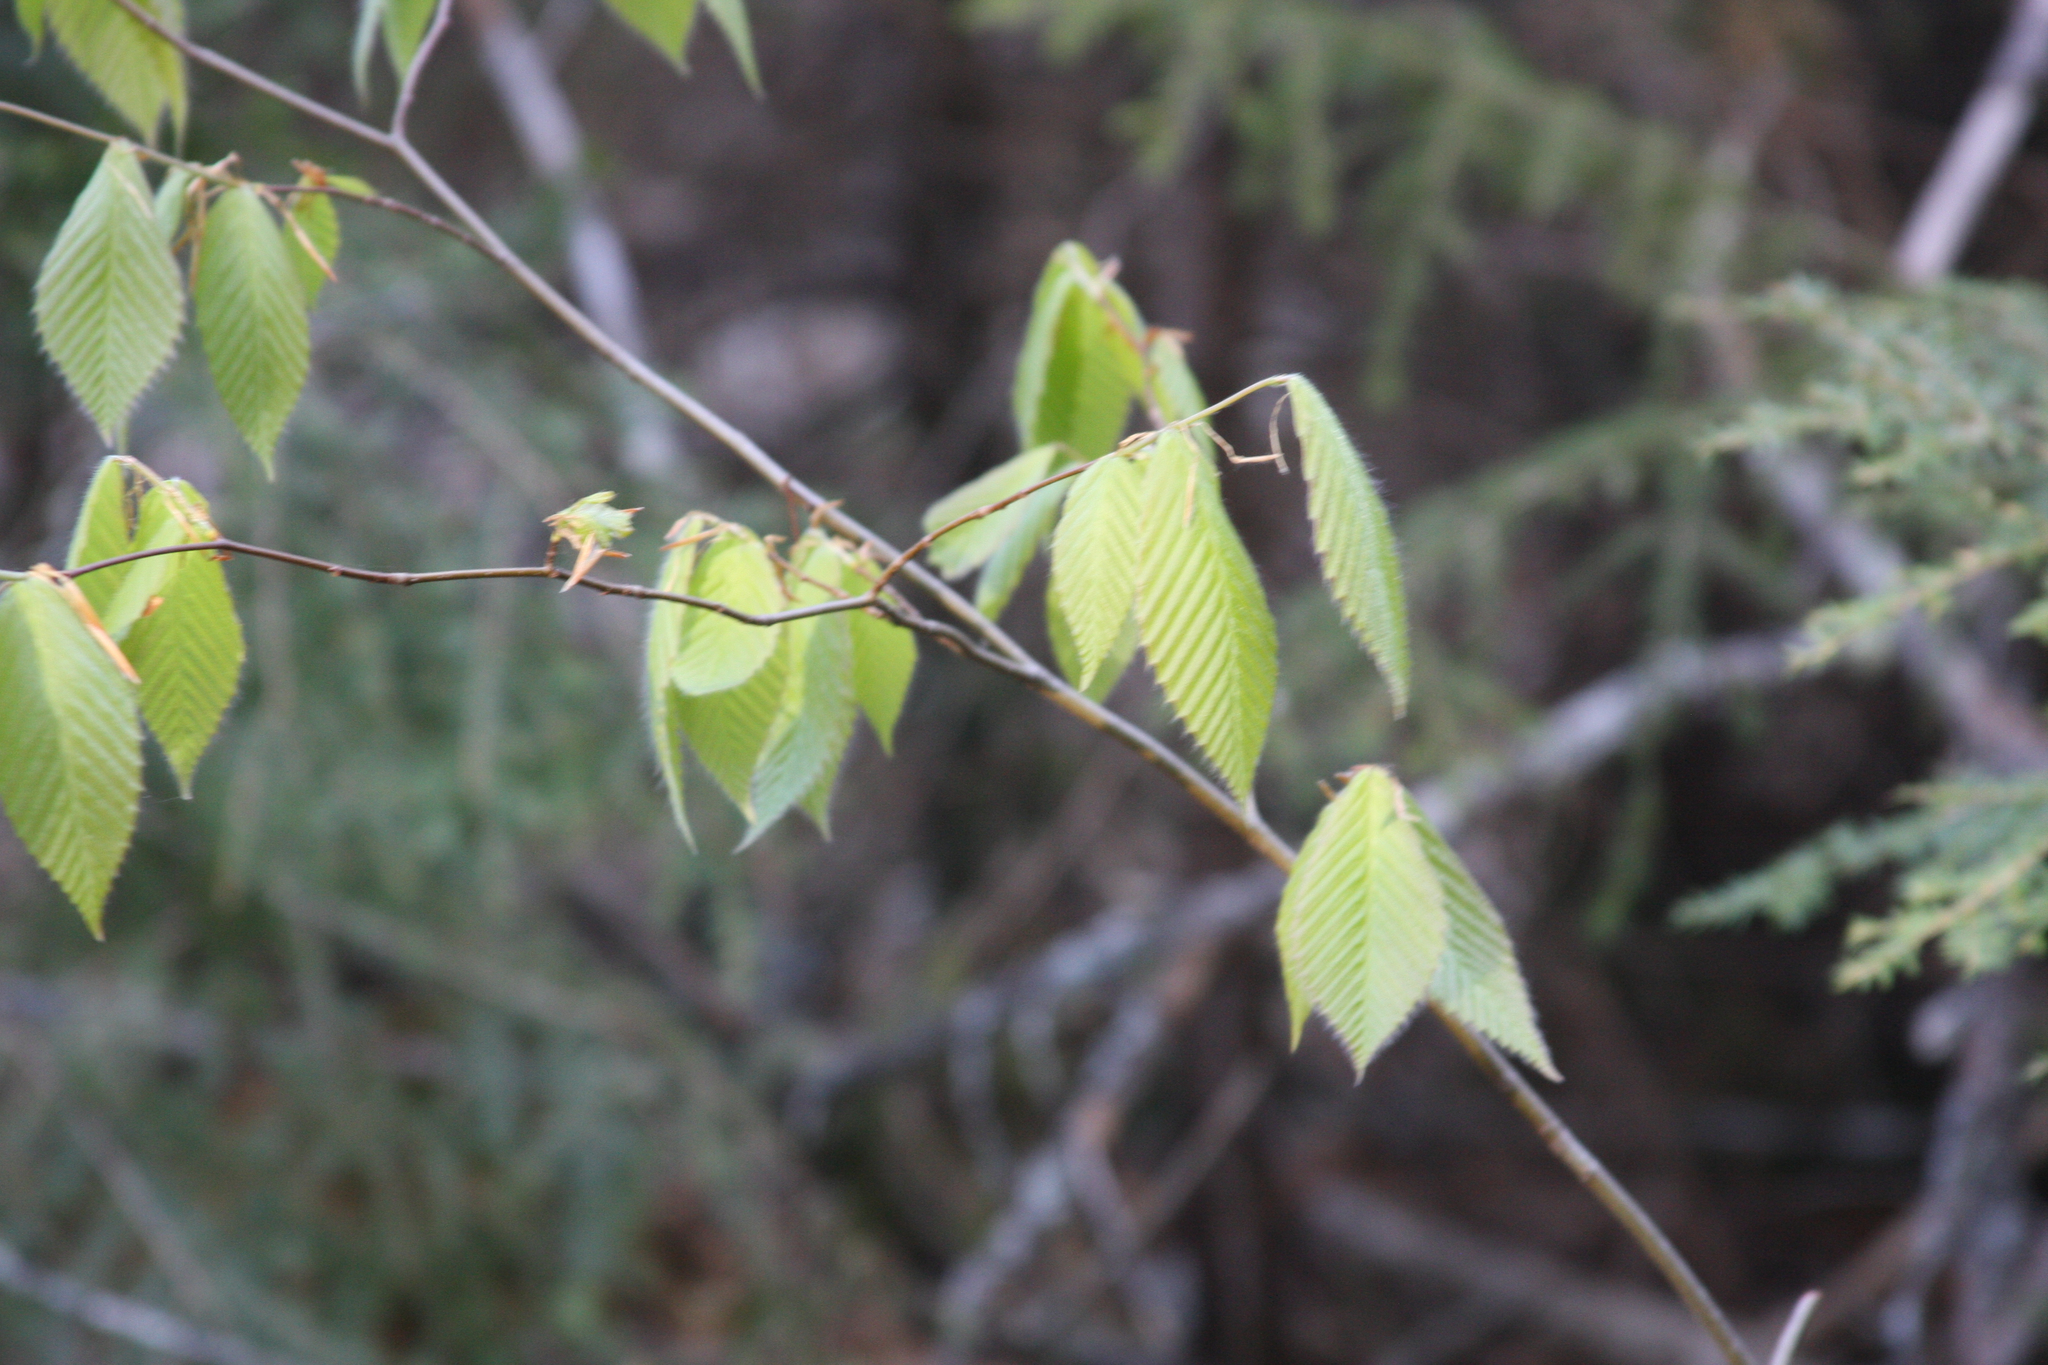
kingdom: Plantae
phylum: Tracheophyta
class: Magnoliopsida
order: Fagales
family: Fagaceae
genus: Fagus
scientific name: Fagus grandifolia
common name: American beech
